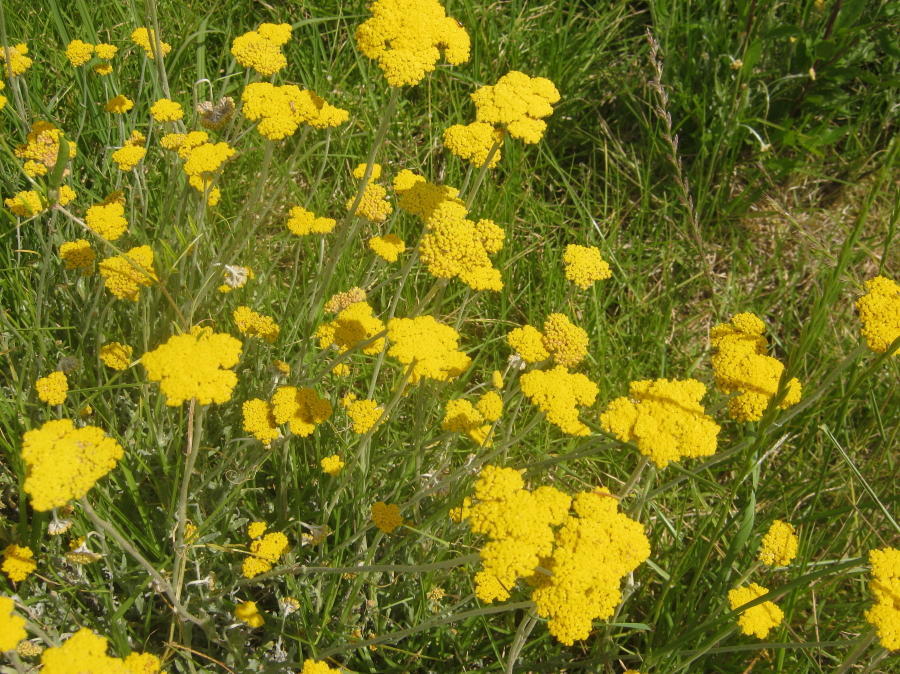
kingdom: Plantae
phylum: Tracheophyta
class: Magnoliopsida
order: Asterales
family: Asteraceae
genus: Helichrysum
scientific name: Helichrysum odoratissimum
